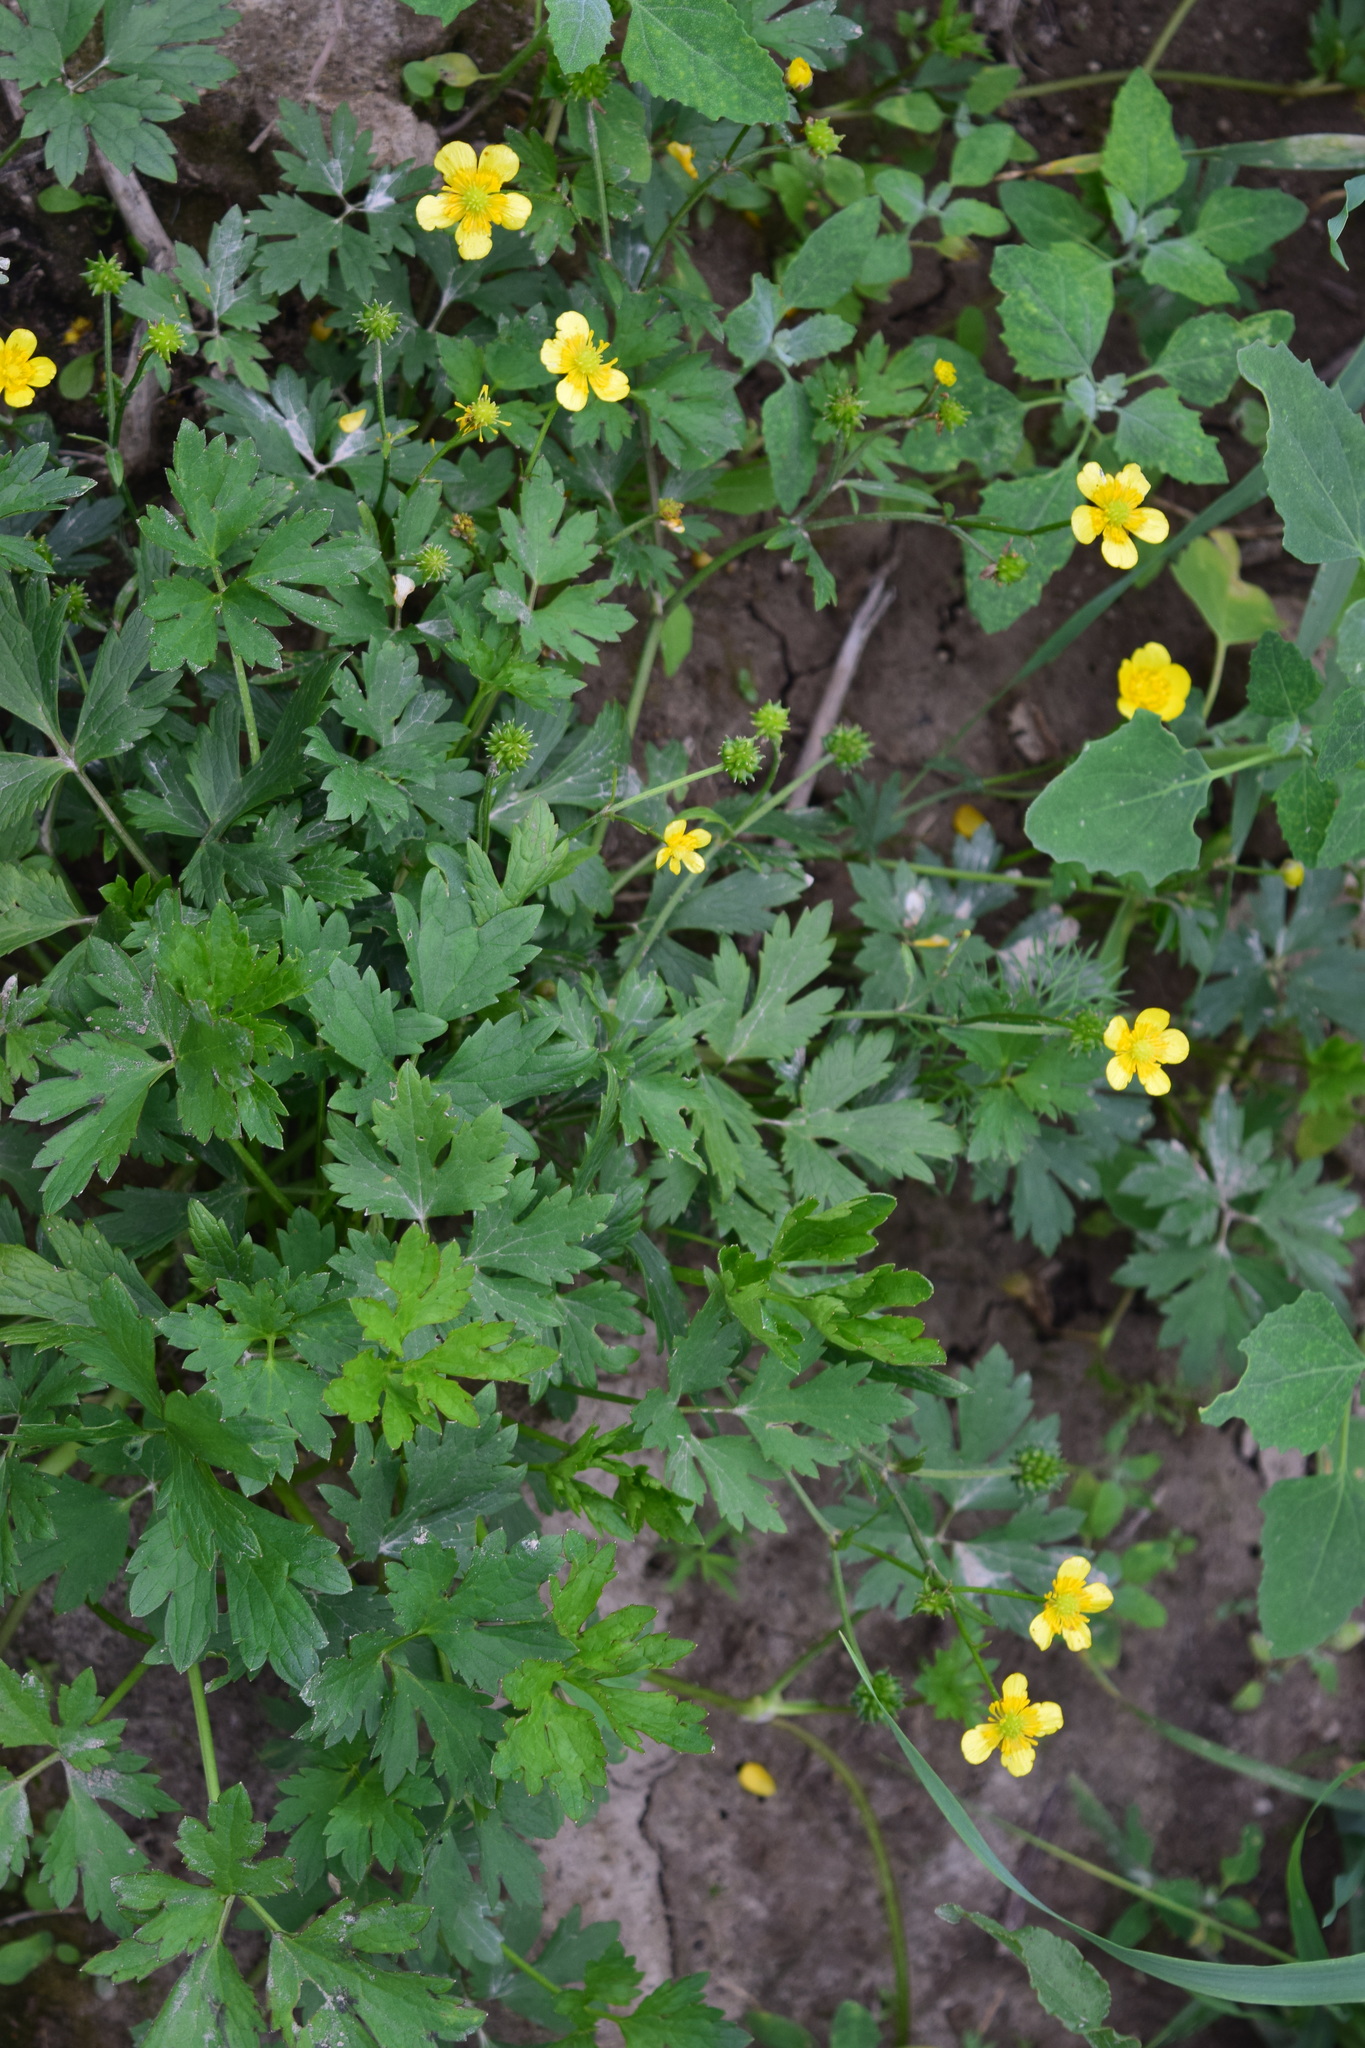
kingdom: Plantae
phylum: Tracheophyta
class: Magnoliopsida
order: Ranunculales
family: Ranunculaceae
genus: Ranunculus
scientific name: Ranunculus repens
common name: Creeping buttercup
